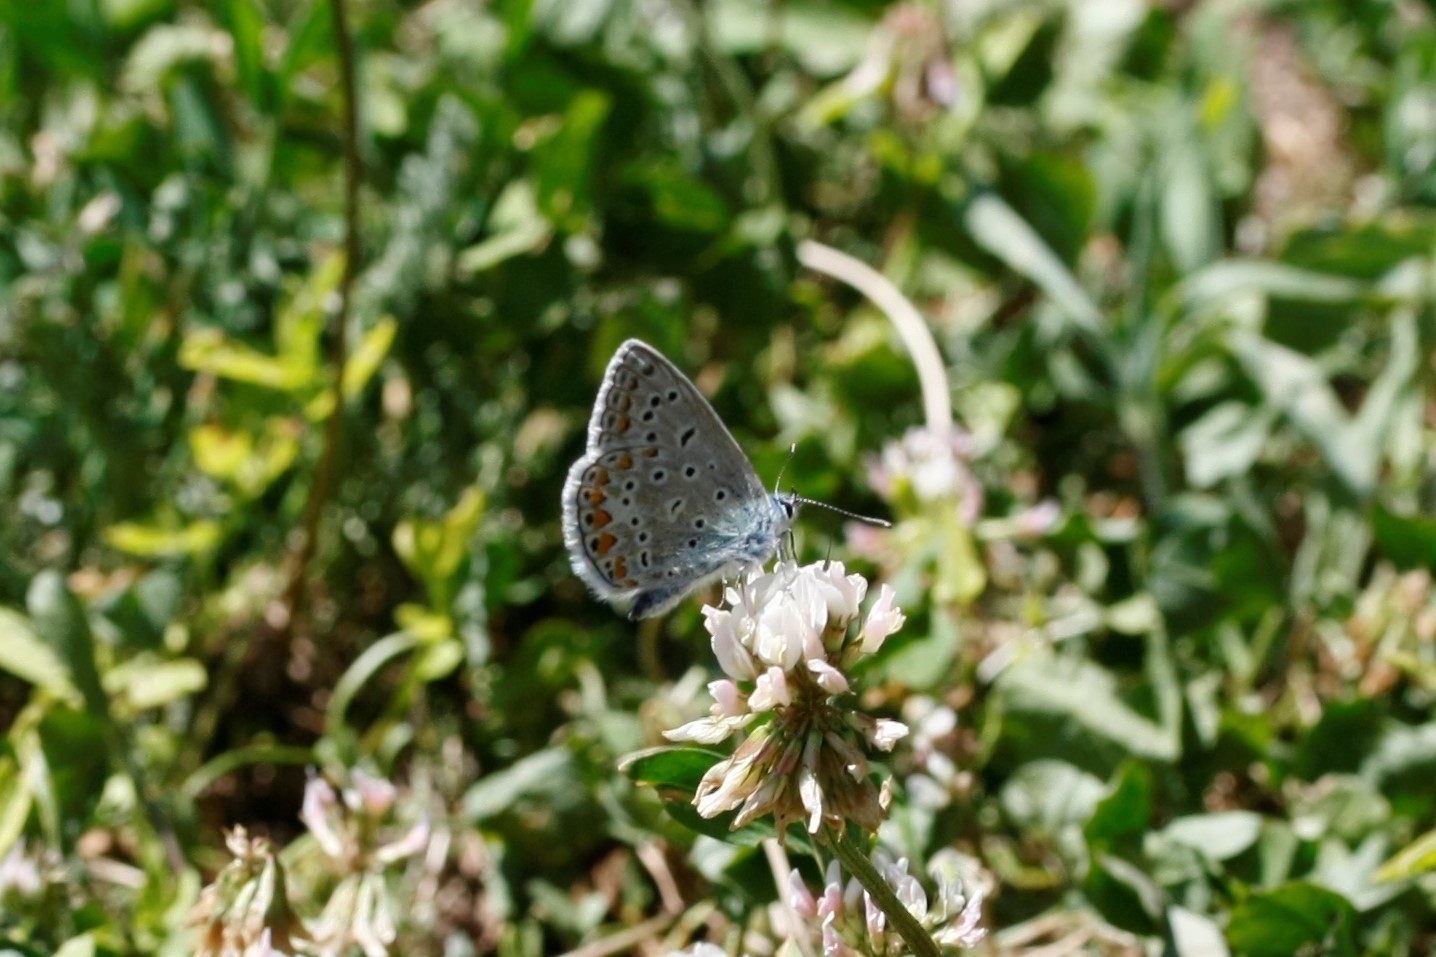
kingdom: Animalia
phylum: Arthropoda
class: Insecta
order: Lepidoptera
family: Lycaenidae
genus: Polyommatus
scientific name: Polyommatus icarus
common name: Common blue
